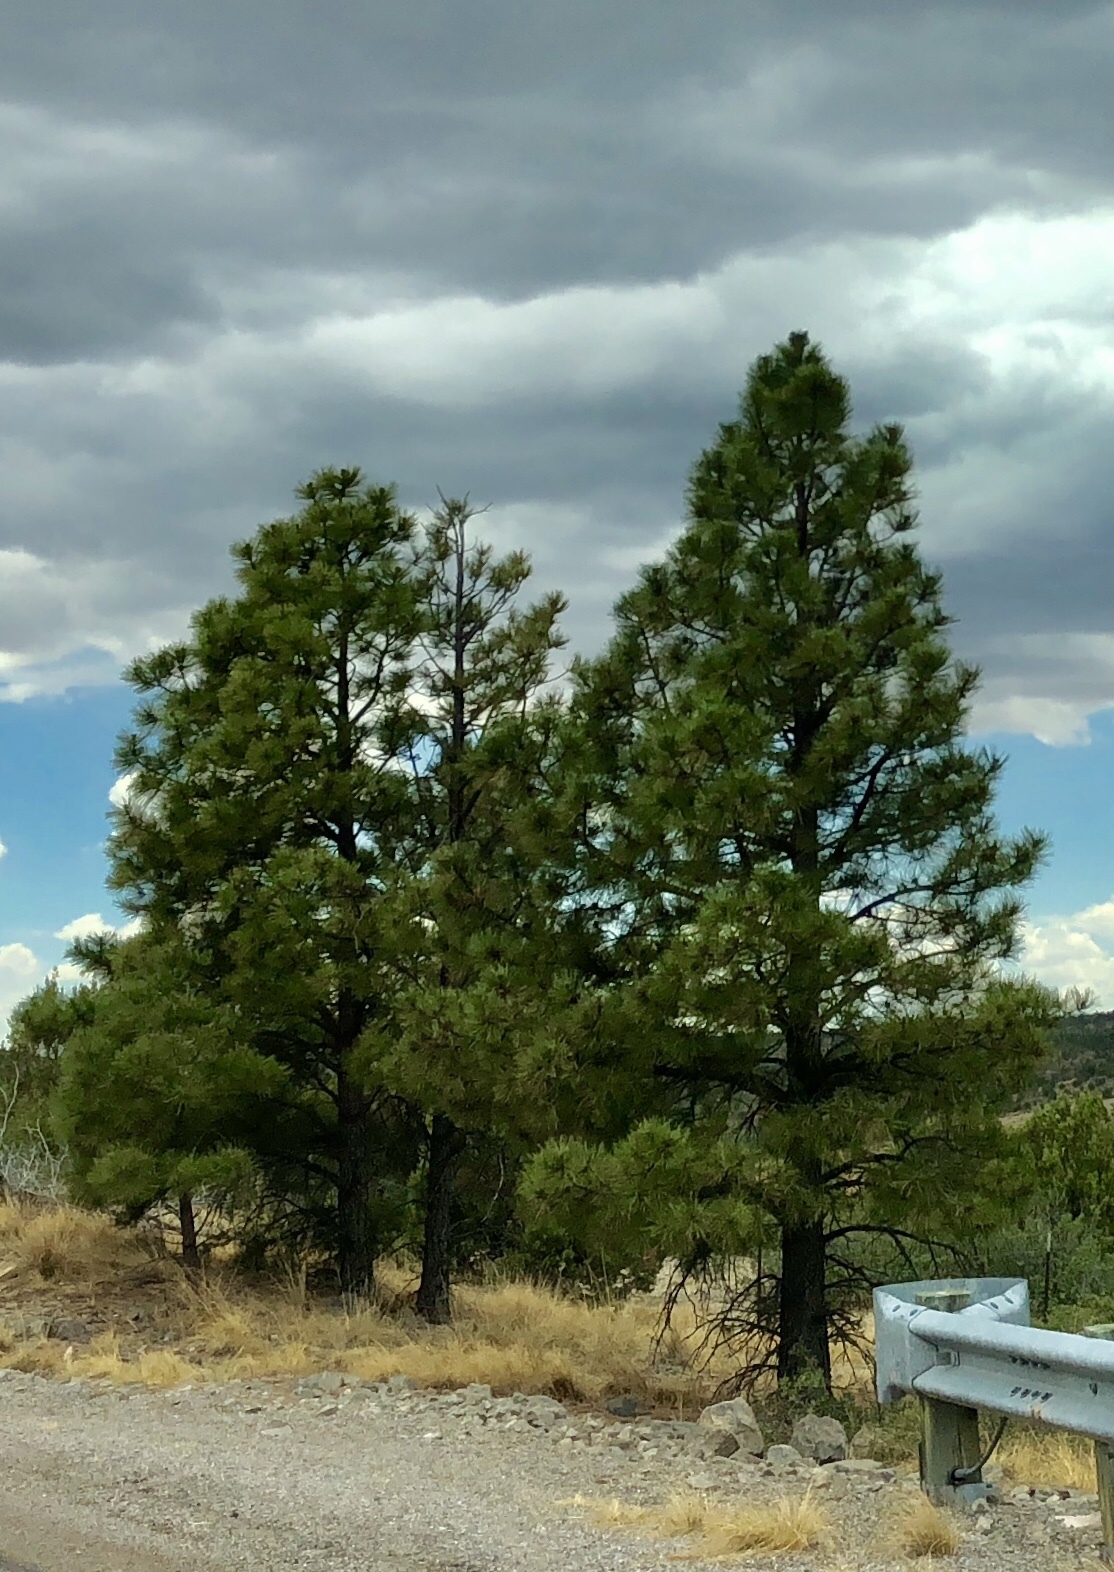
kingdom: Plantae
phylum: Tracheophyta
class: Pinopsida
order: Pinales
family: Pinaceae
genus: Pinus
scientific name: Pinus ponderosa
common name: Western yellow-pine
